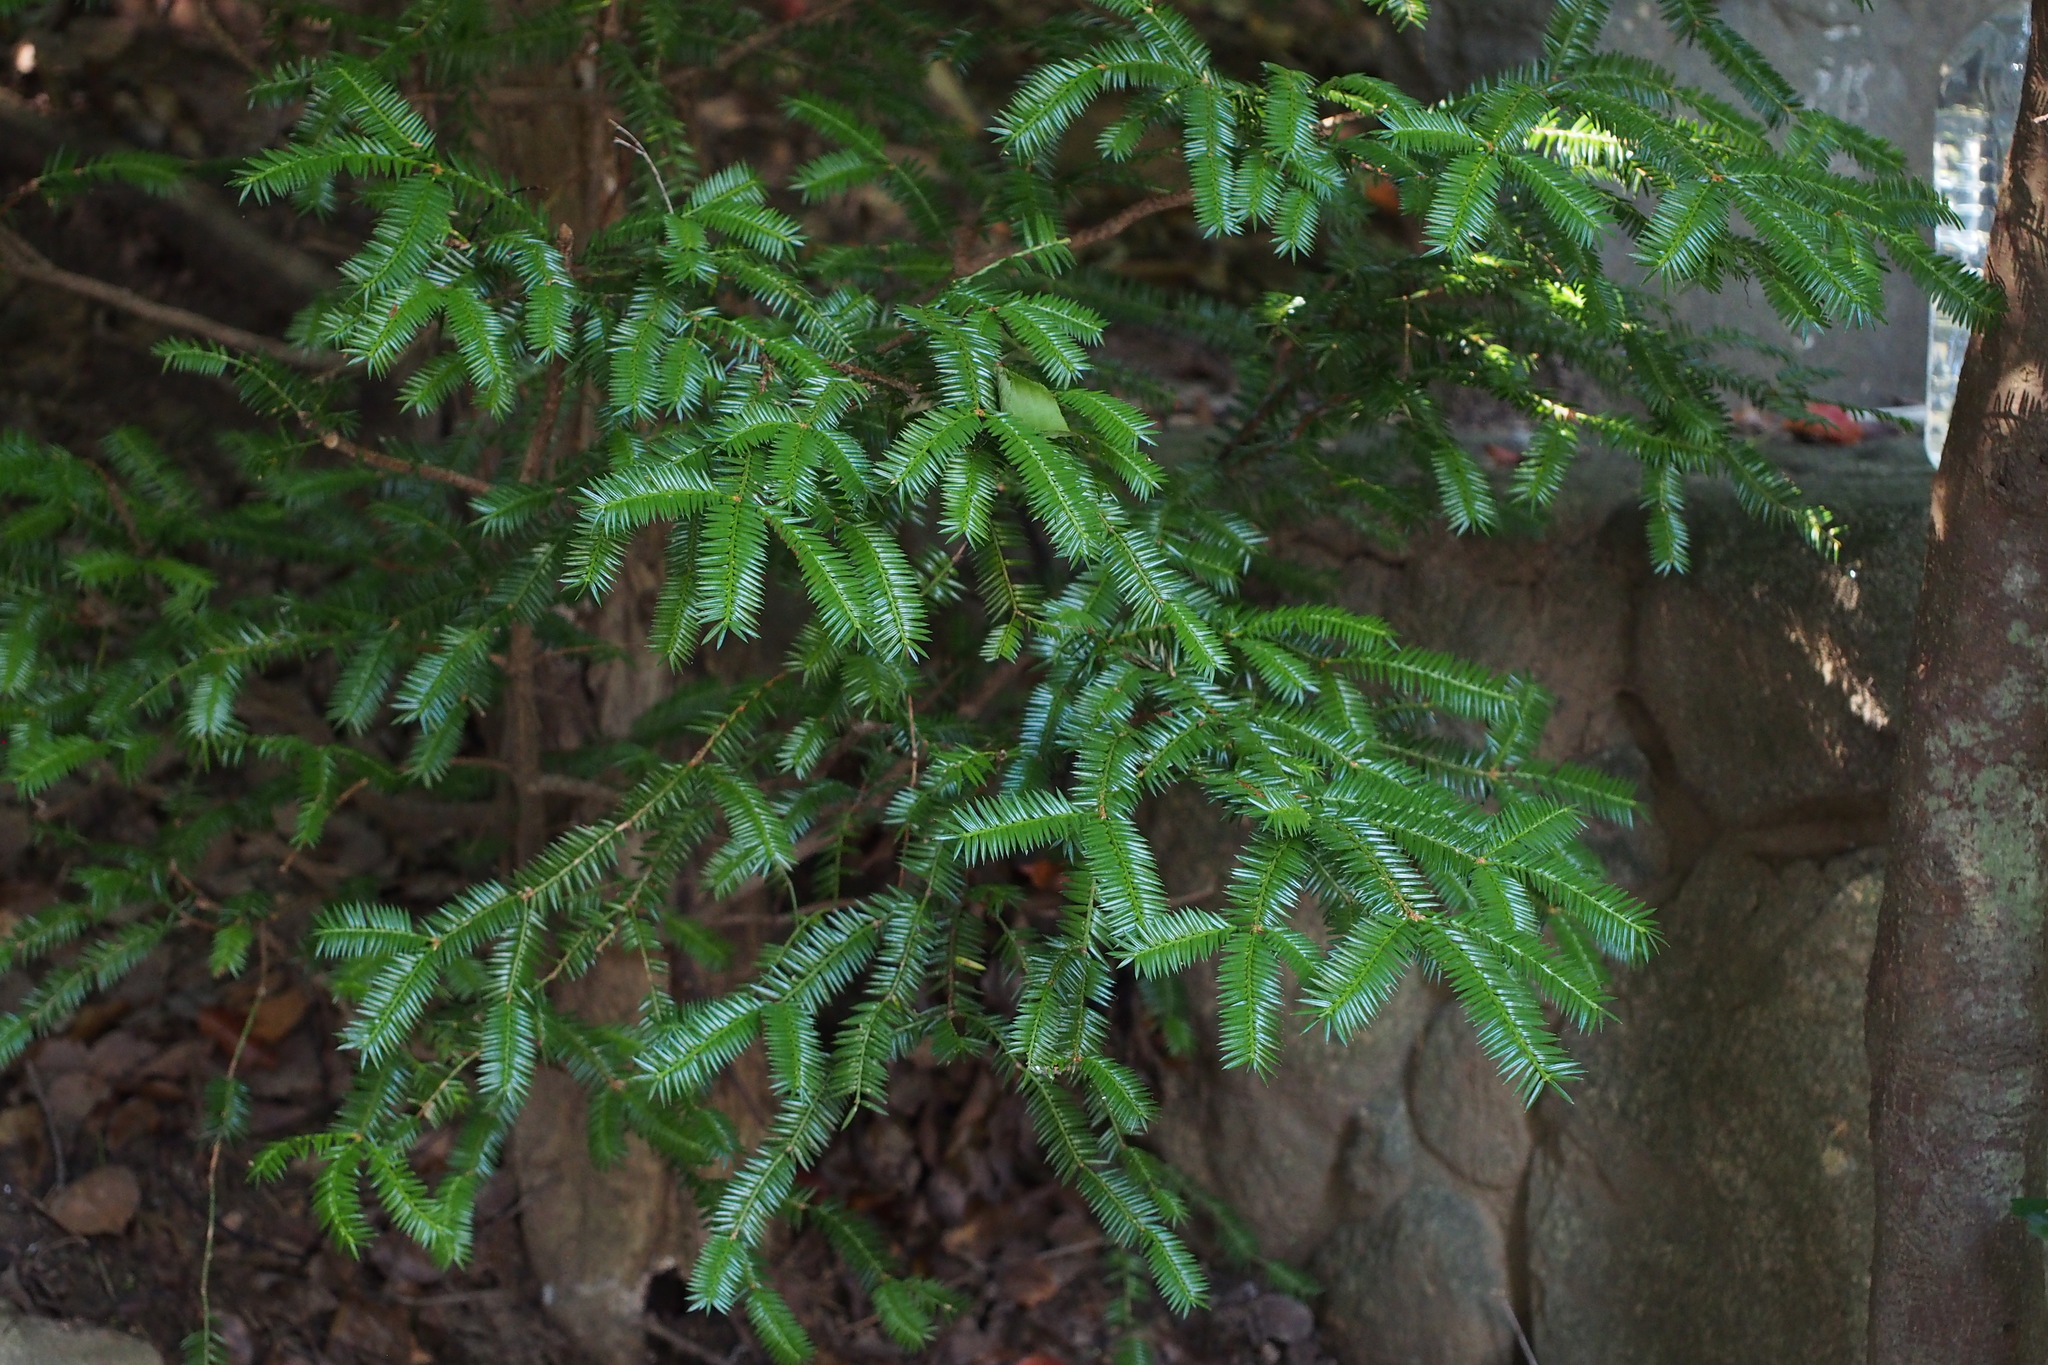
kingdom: Plantae
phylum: Tracheophyta
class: Pinopsida
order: Pinales
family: Taxaceae
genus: Torreya
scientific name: Torreya nucifera
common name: Japanese nutmeg tree
